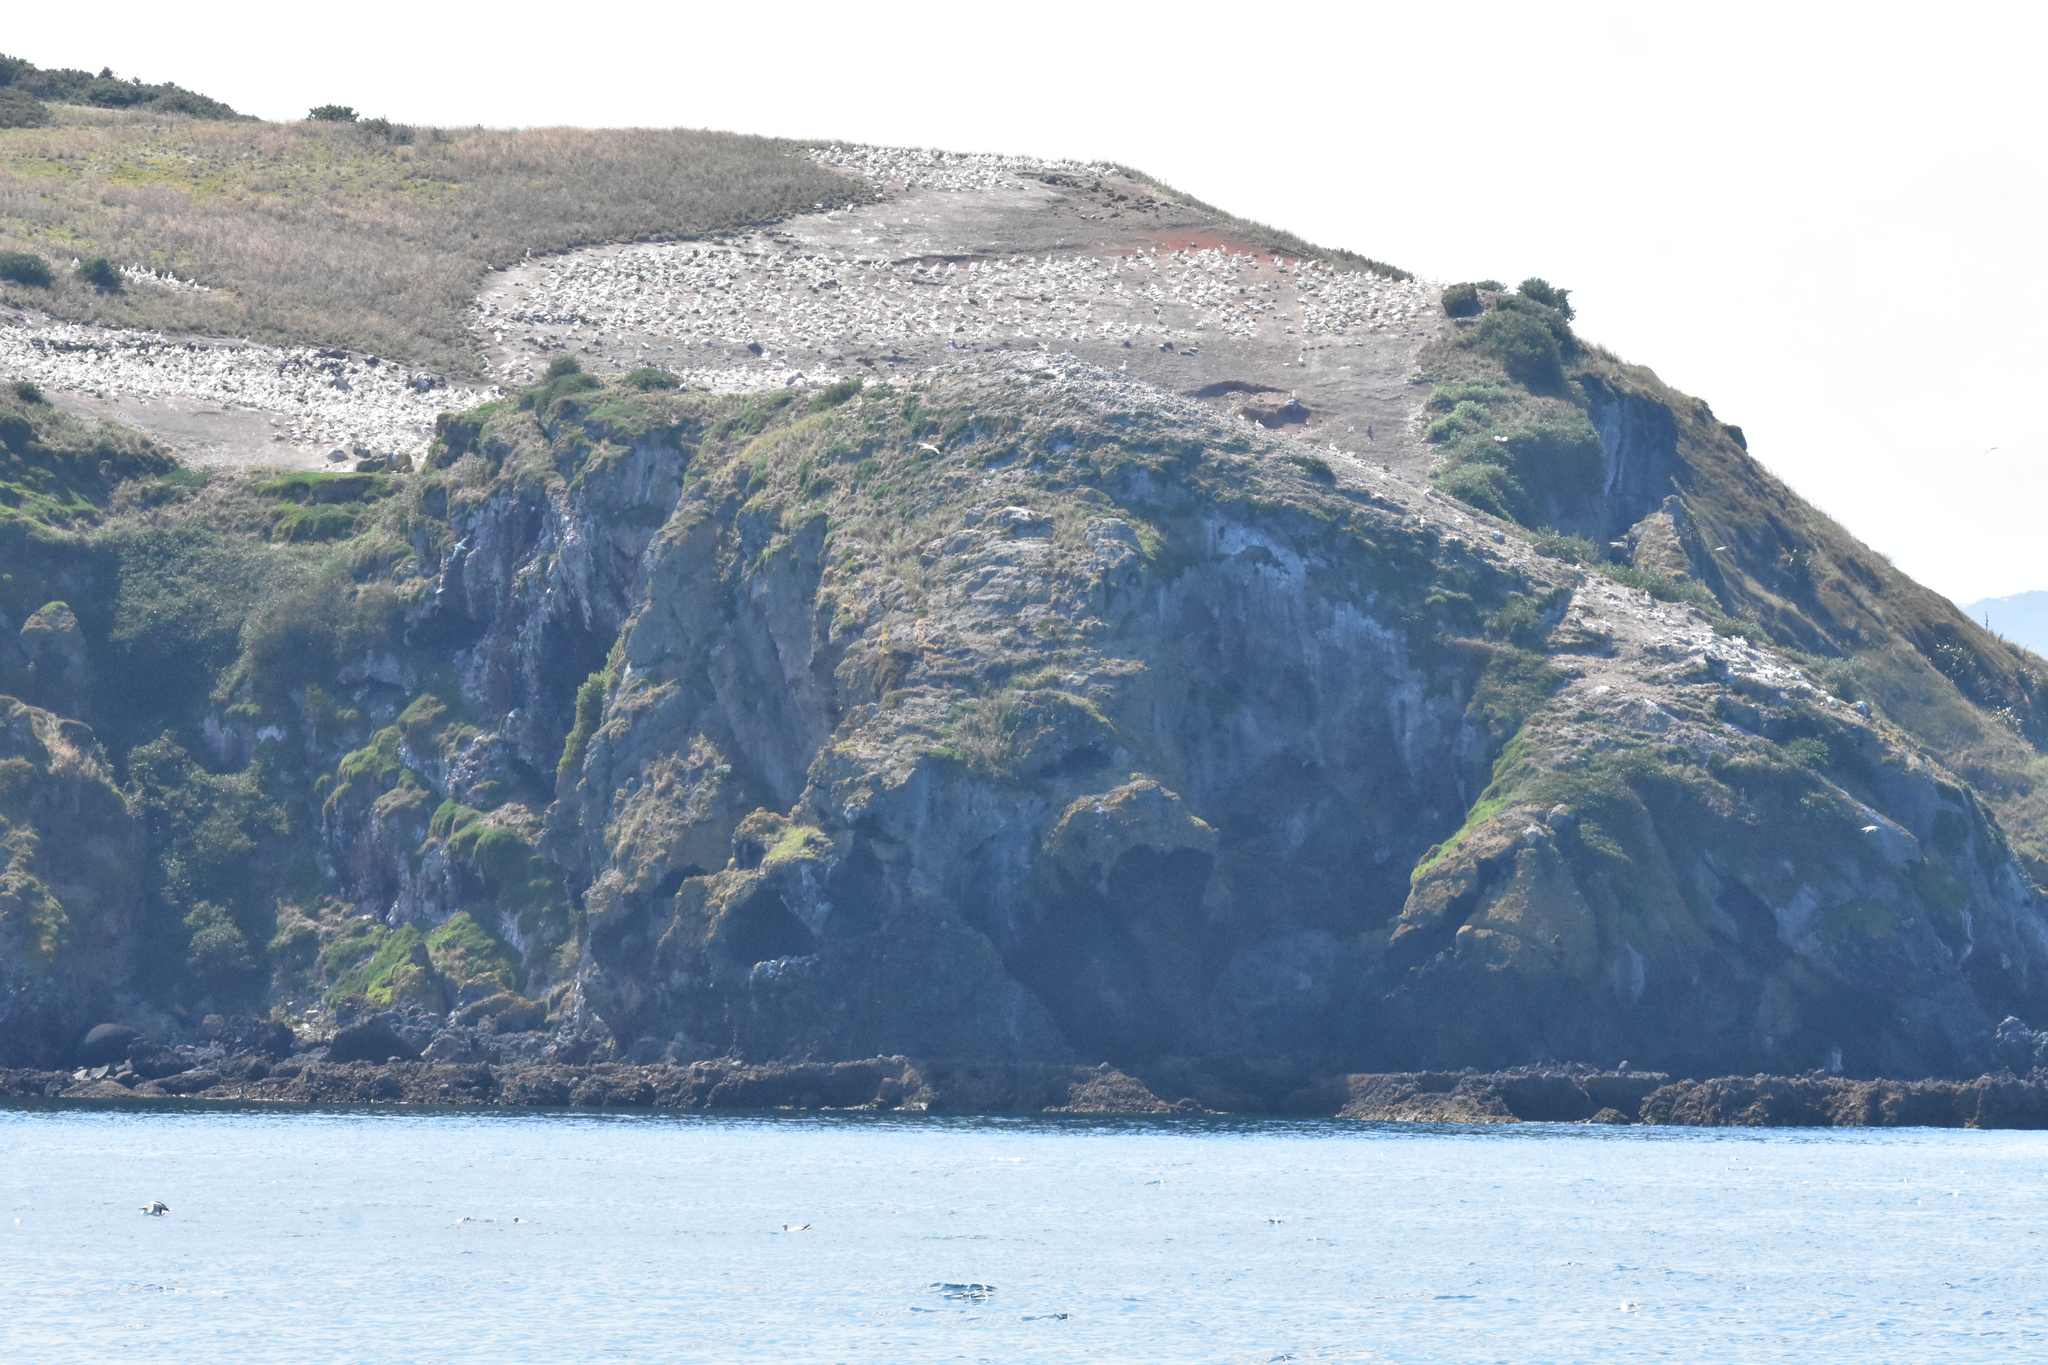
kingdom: Animalia
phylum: Chordata
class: Aves
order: Suliformes
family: Sulidae
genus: Morus
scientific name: Morus serrator
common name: Australasian gannet
